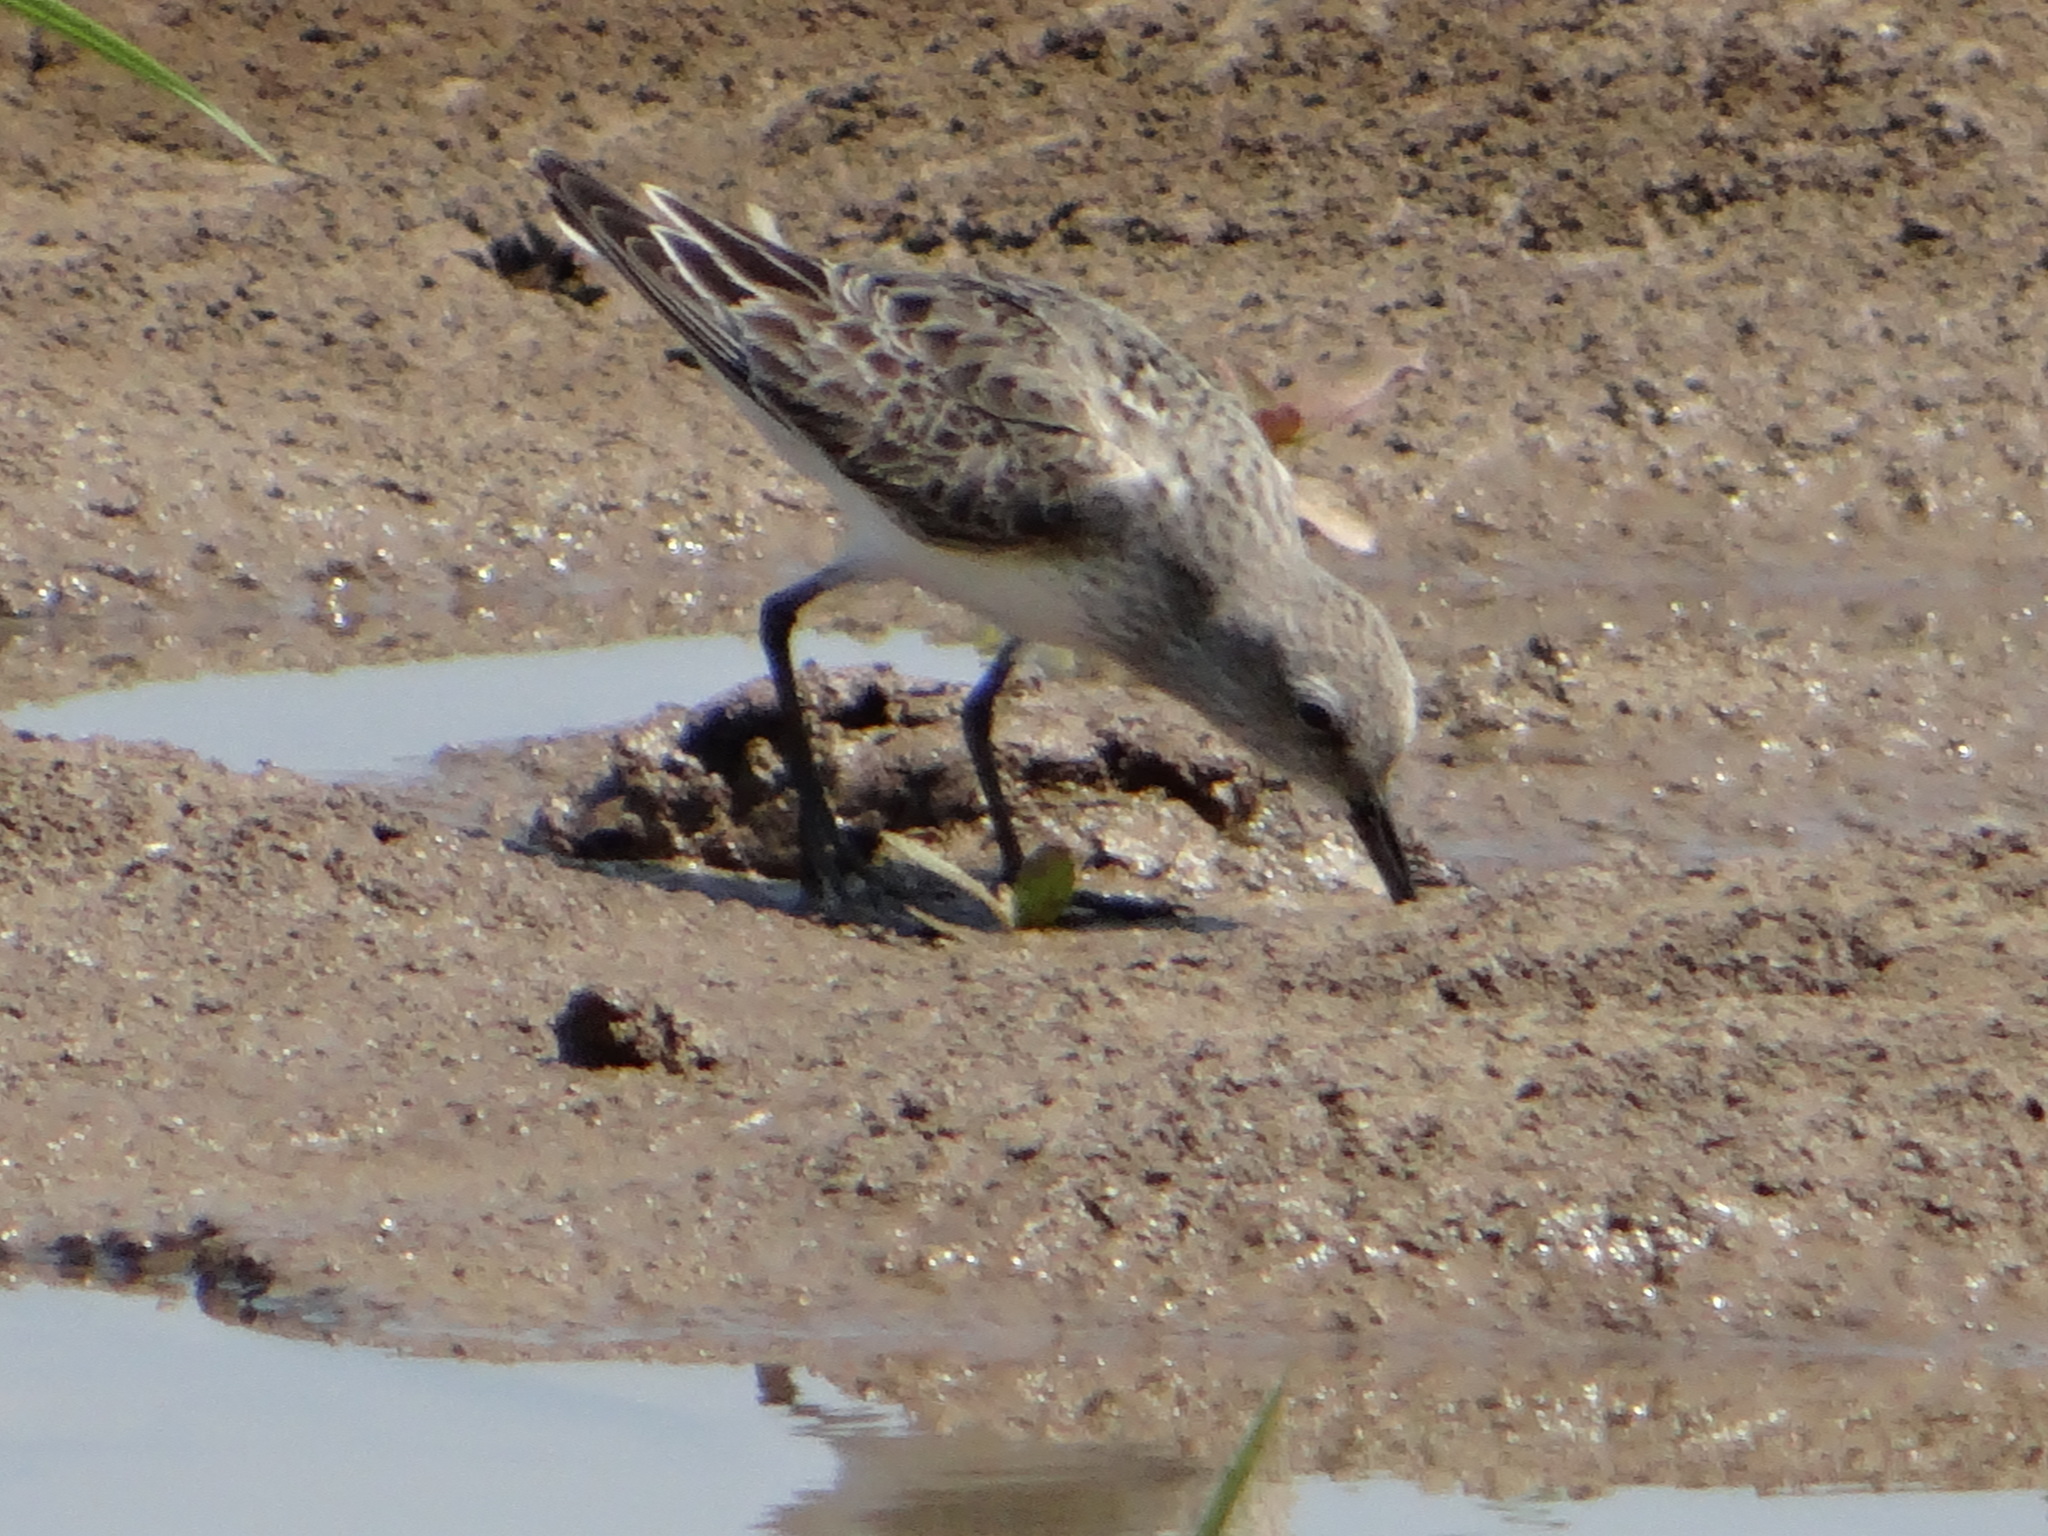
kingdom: Animalia
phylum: Chordata
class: Aves
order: Charadriiformes
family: Scolopacidae
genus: Calidris
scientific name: Calidris fuscicollis
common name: White-rumped sandpiper
